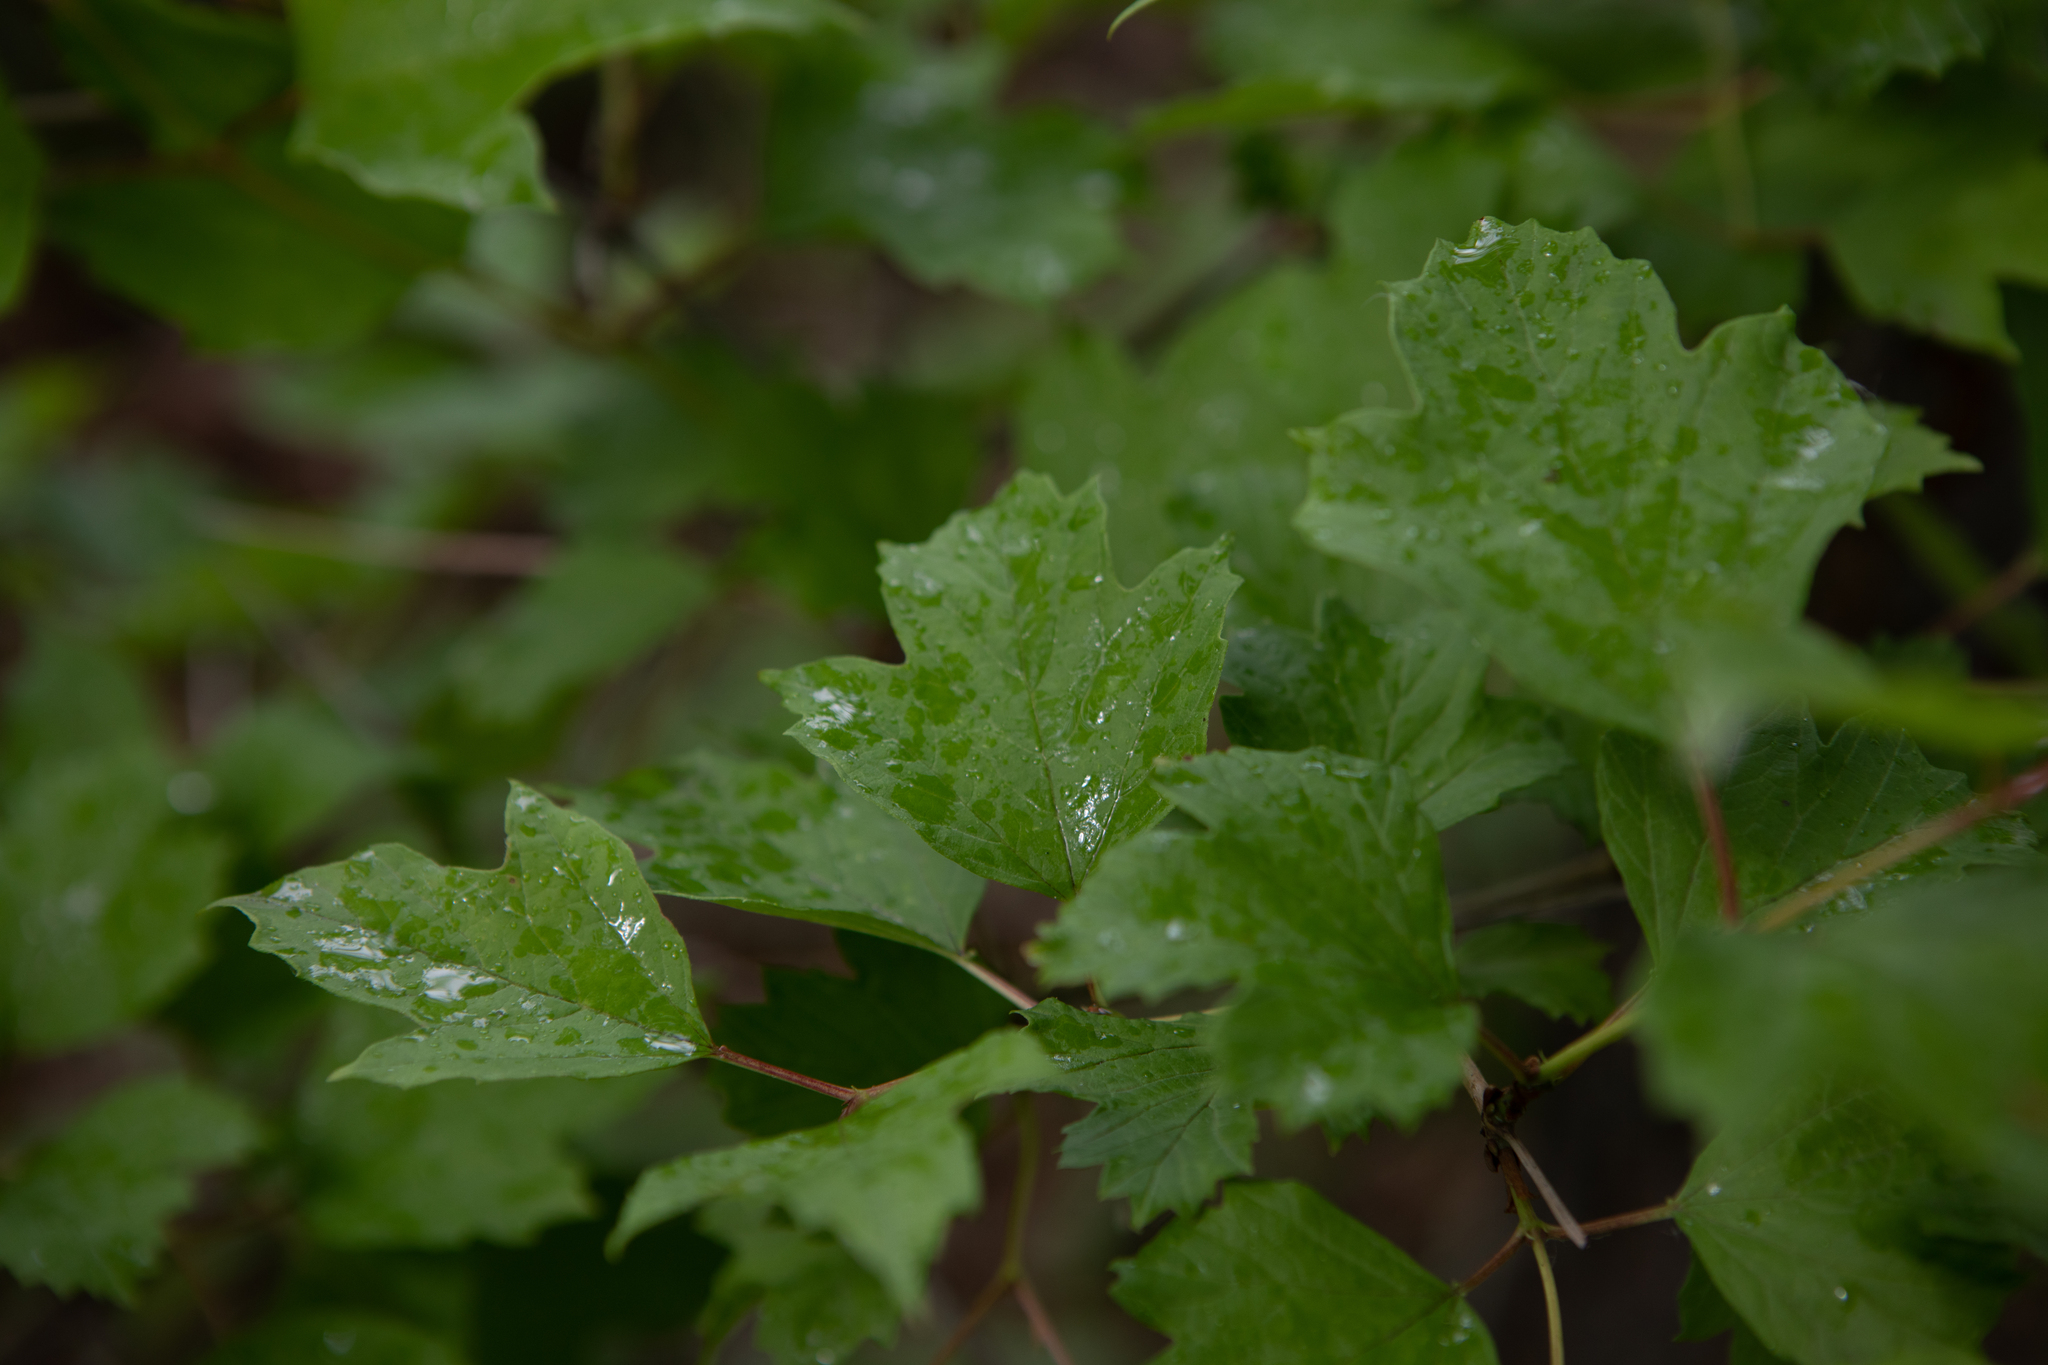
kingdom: Plantae
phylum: Tracheophyta
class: Magnoliopsida
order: Dipsacales
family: Viburnaceae
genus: Viburnum
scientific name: Viburnum opulus
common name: Guelder-rose
